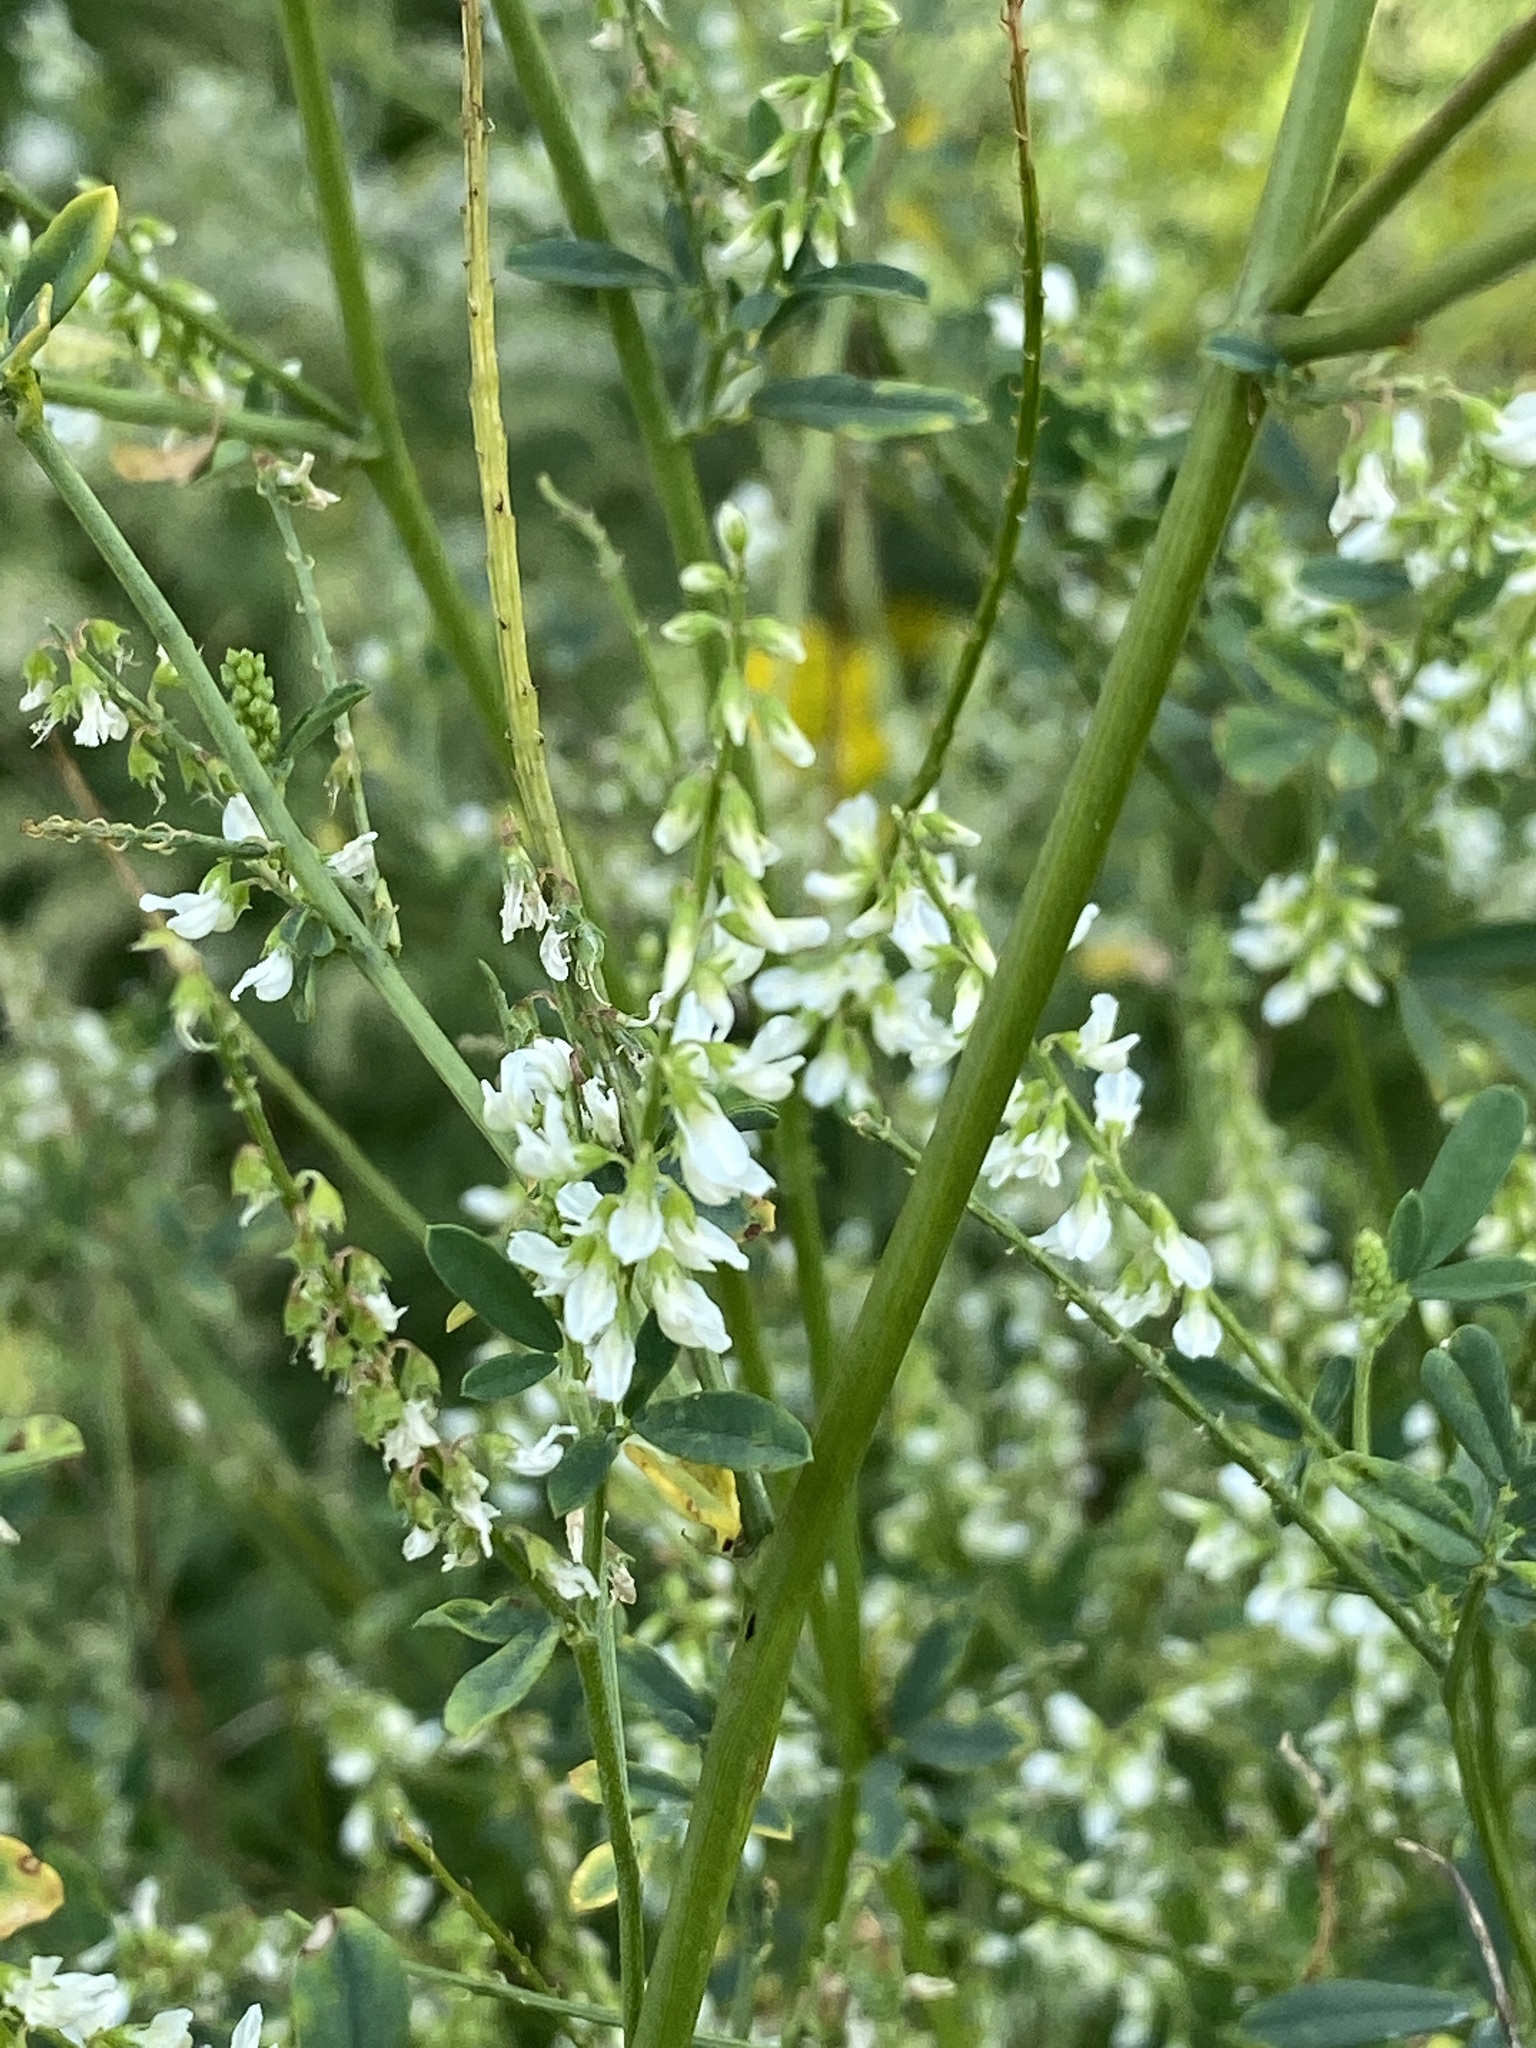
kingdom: Plantae
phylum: Tracheophyta
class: Magnoliopsida
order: Fabales
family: Fabaceae
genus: Melilotus
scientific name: Melilotus albus
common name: White melilot
